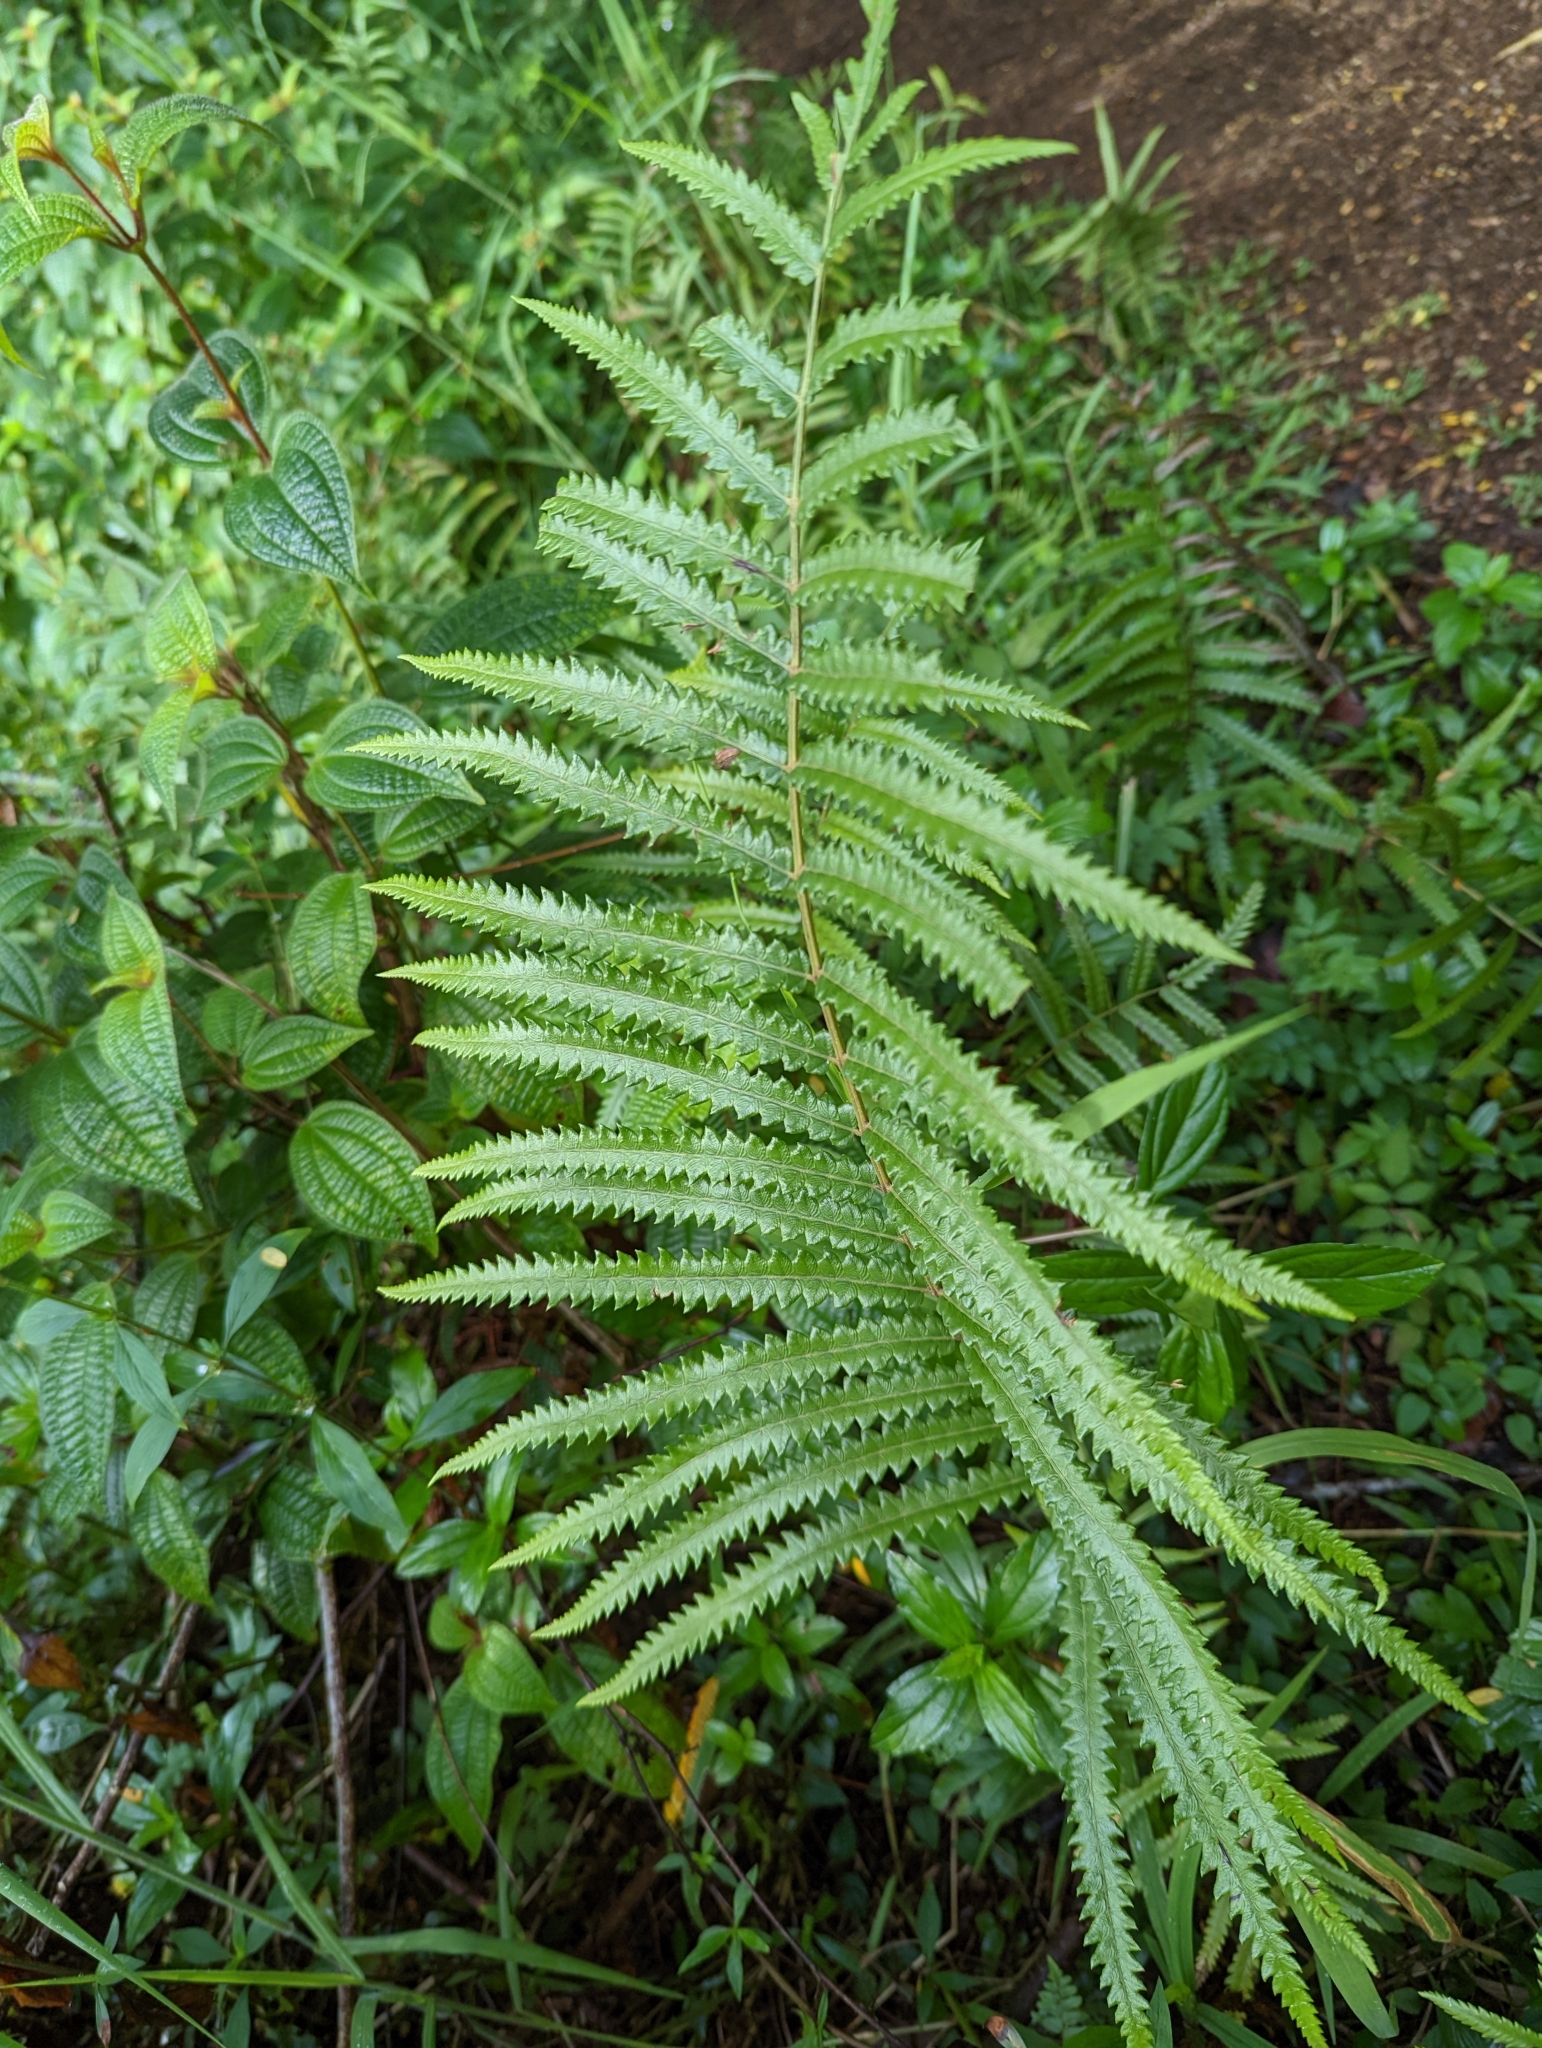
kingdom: Plantae
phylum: Tracheophyta
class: Polypodiopsida
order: Polypodiales
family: Thelypteridaceae
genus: Cyclosorus
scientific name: Cyclosorus interruptus
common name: Neke fern
